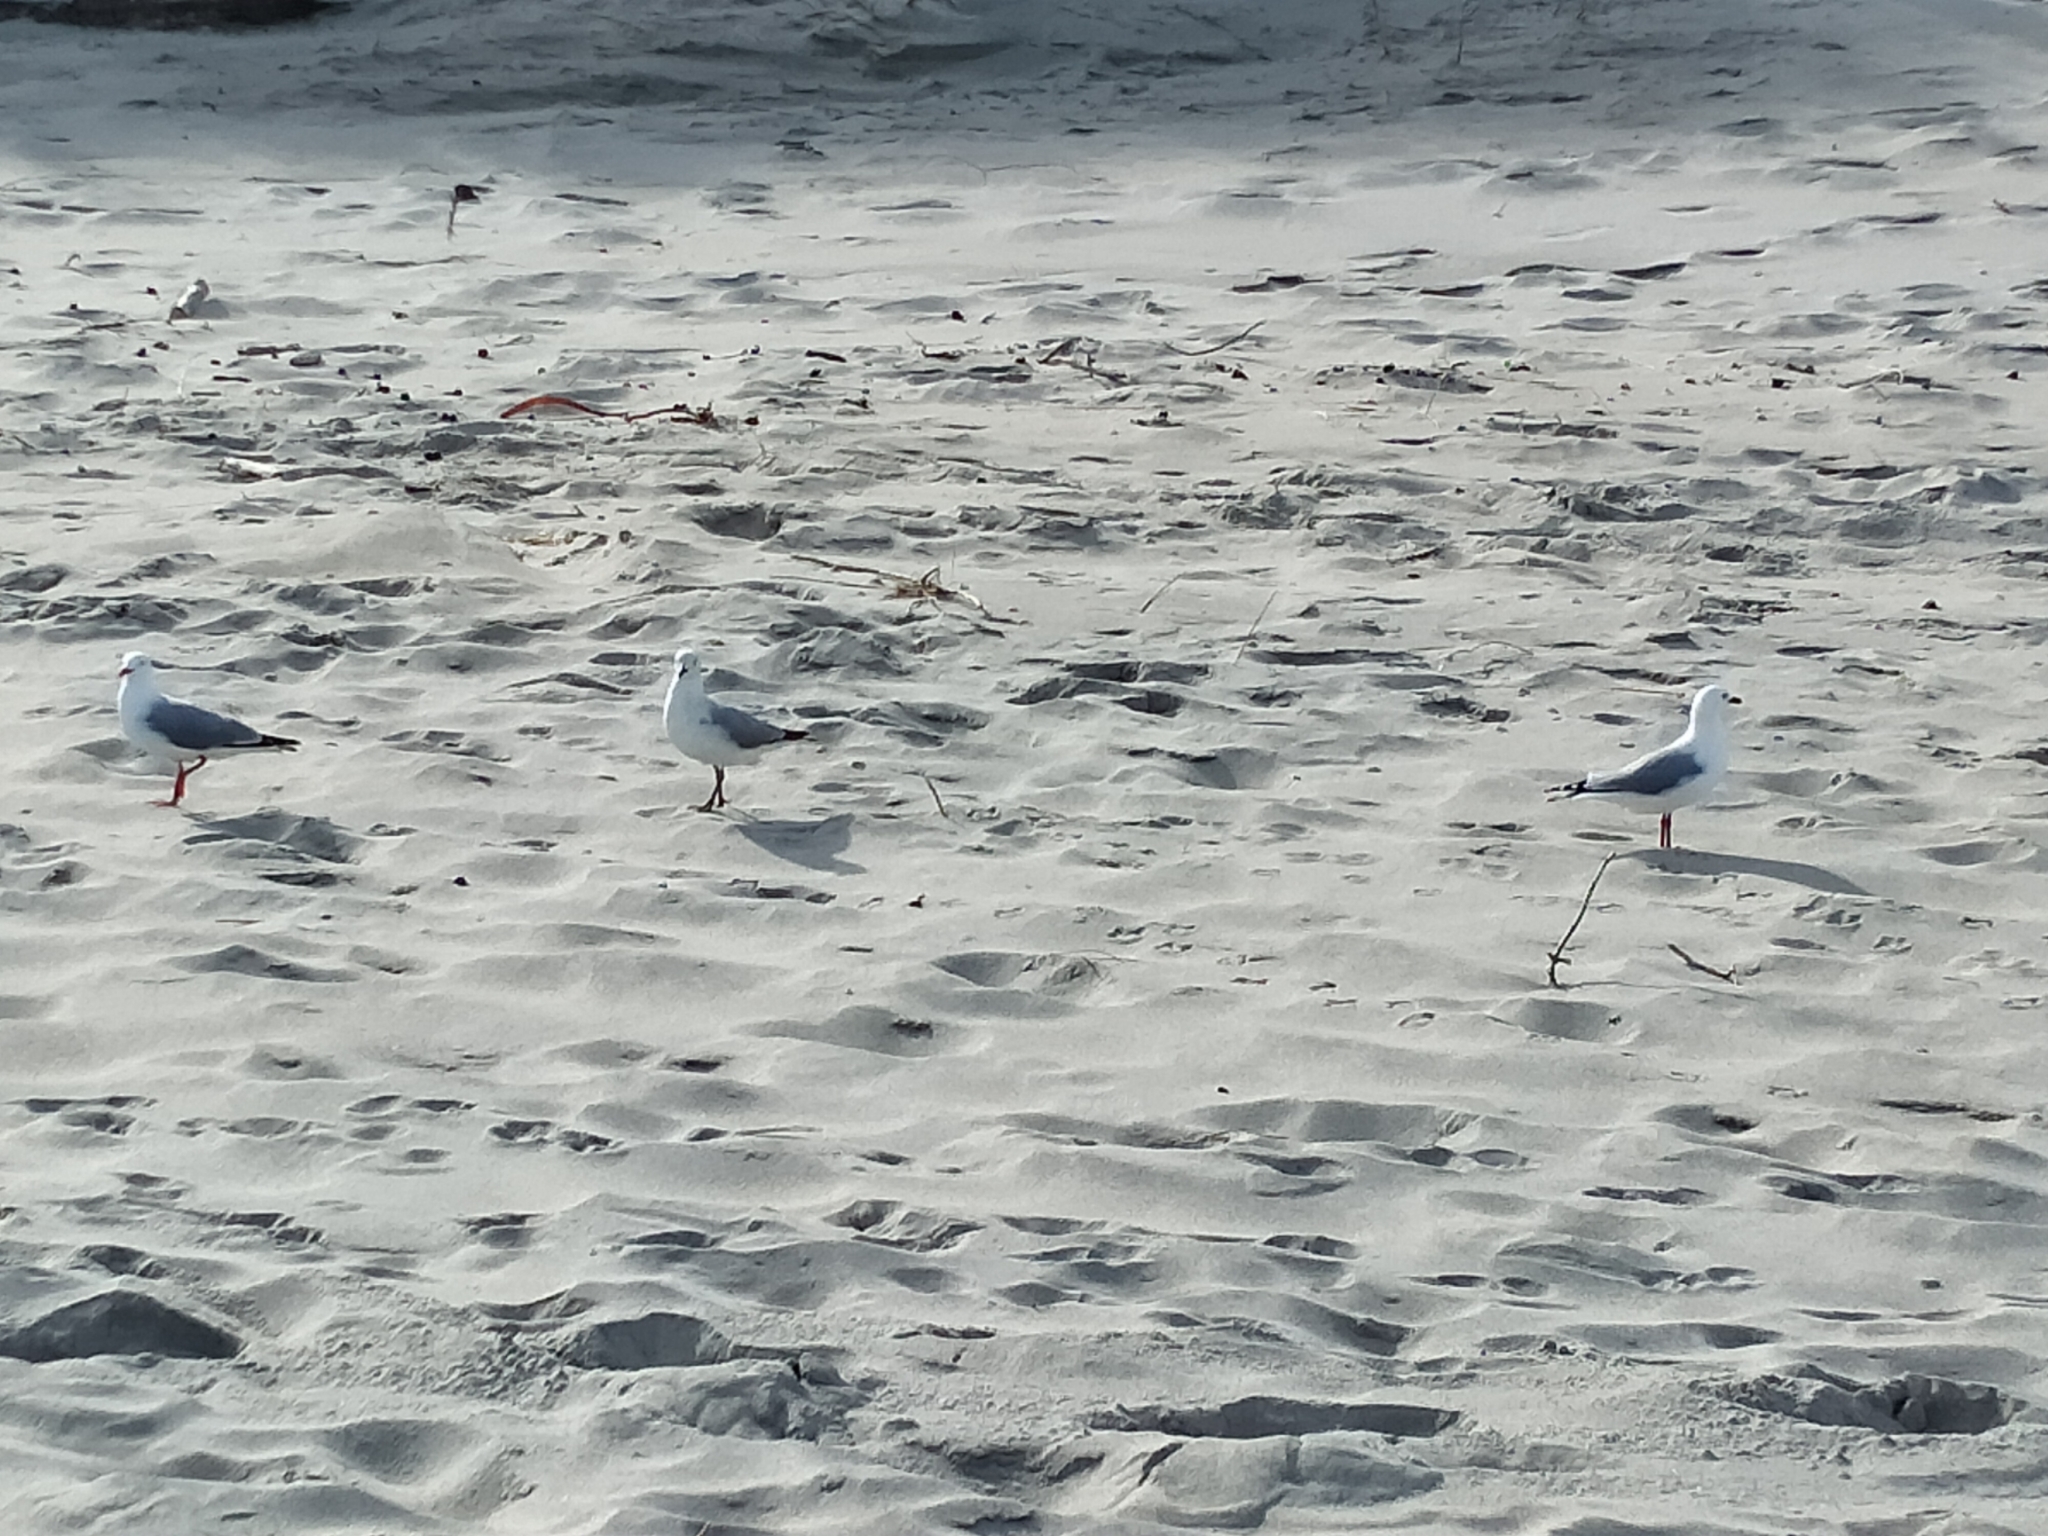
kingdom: Animalia
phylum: Chordata
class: Aves
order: Charadriiformes
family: Laridae
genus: Chroicocephalus
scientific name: Chroicocephalus novaehollandiae
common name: Silver gull
